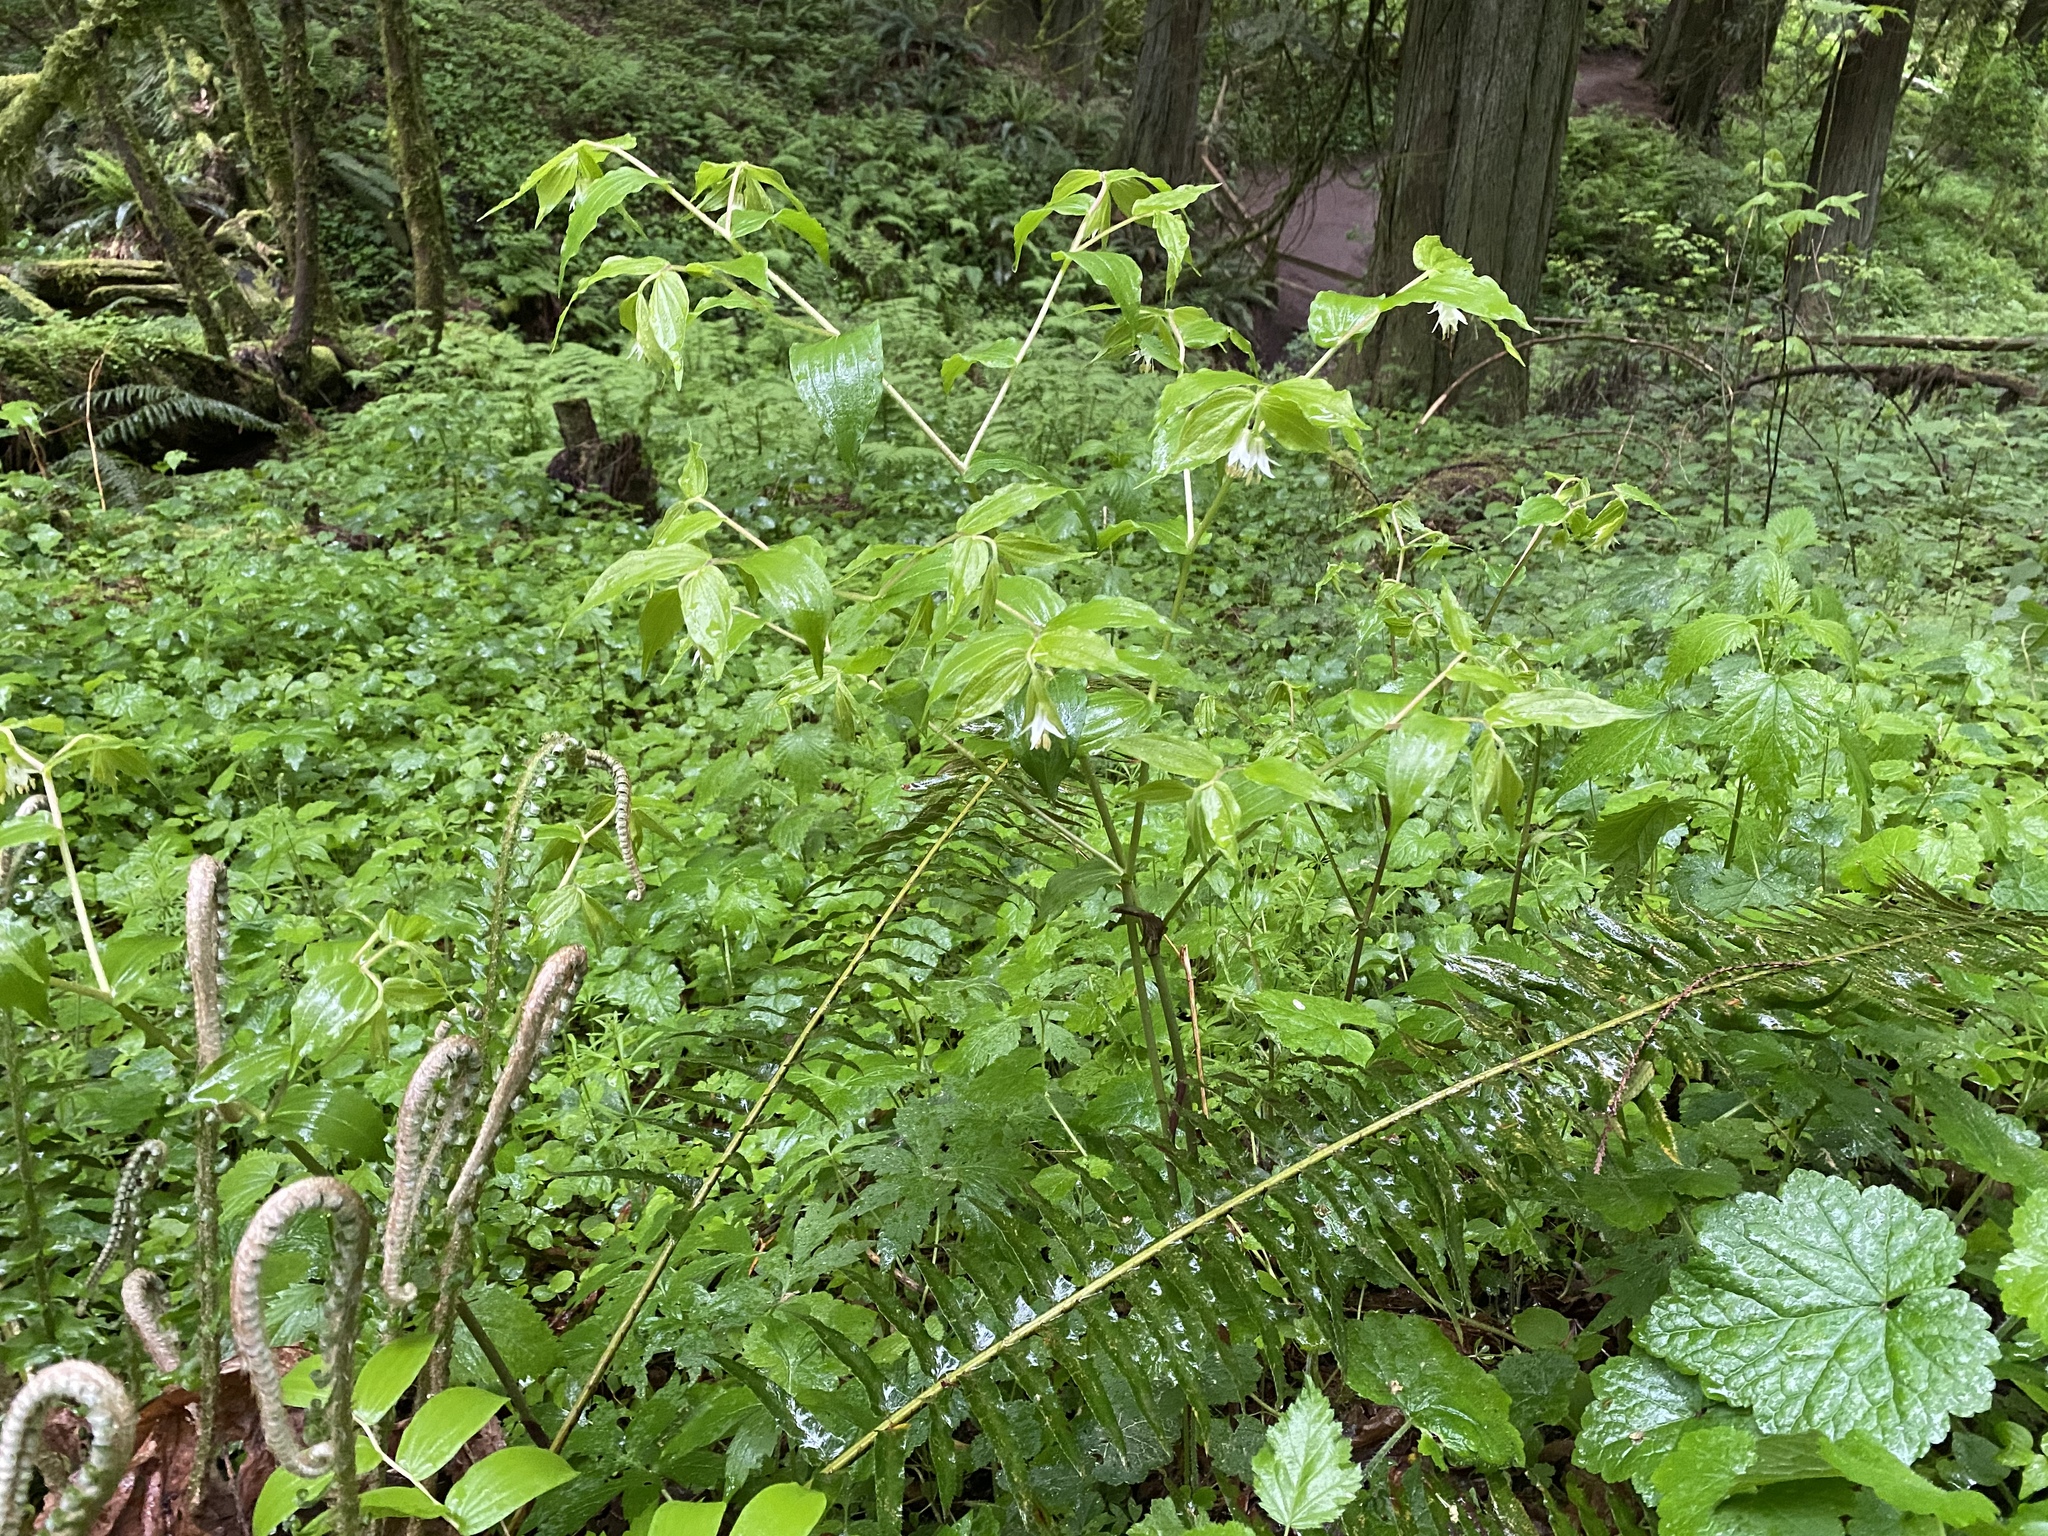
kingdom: Plantae
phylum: Tracheophyta
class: Liliopsida
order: Liliales
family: Liliaceae
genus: Prosartes
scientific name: Prosartes hookeri
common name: Fairy-bells
